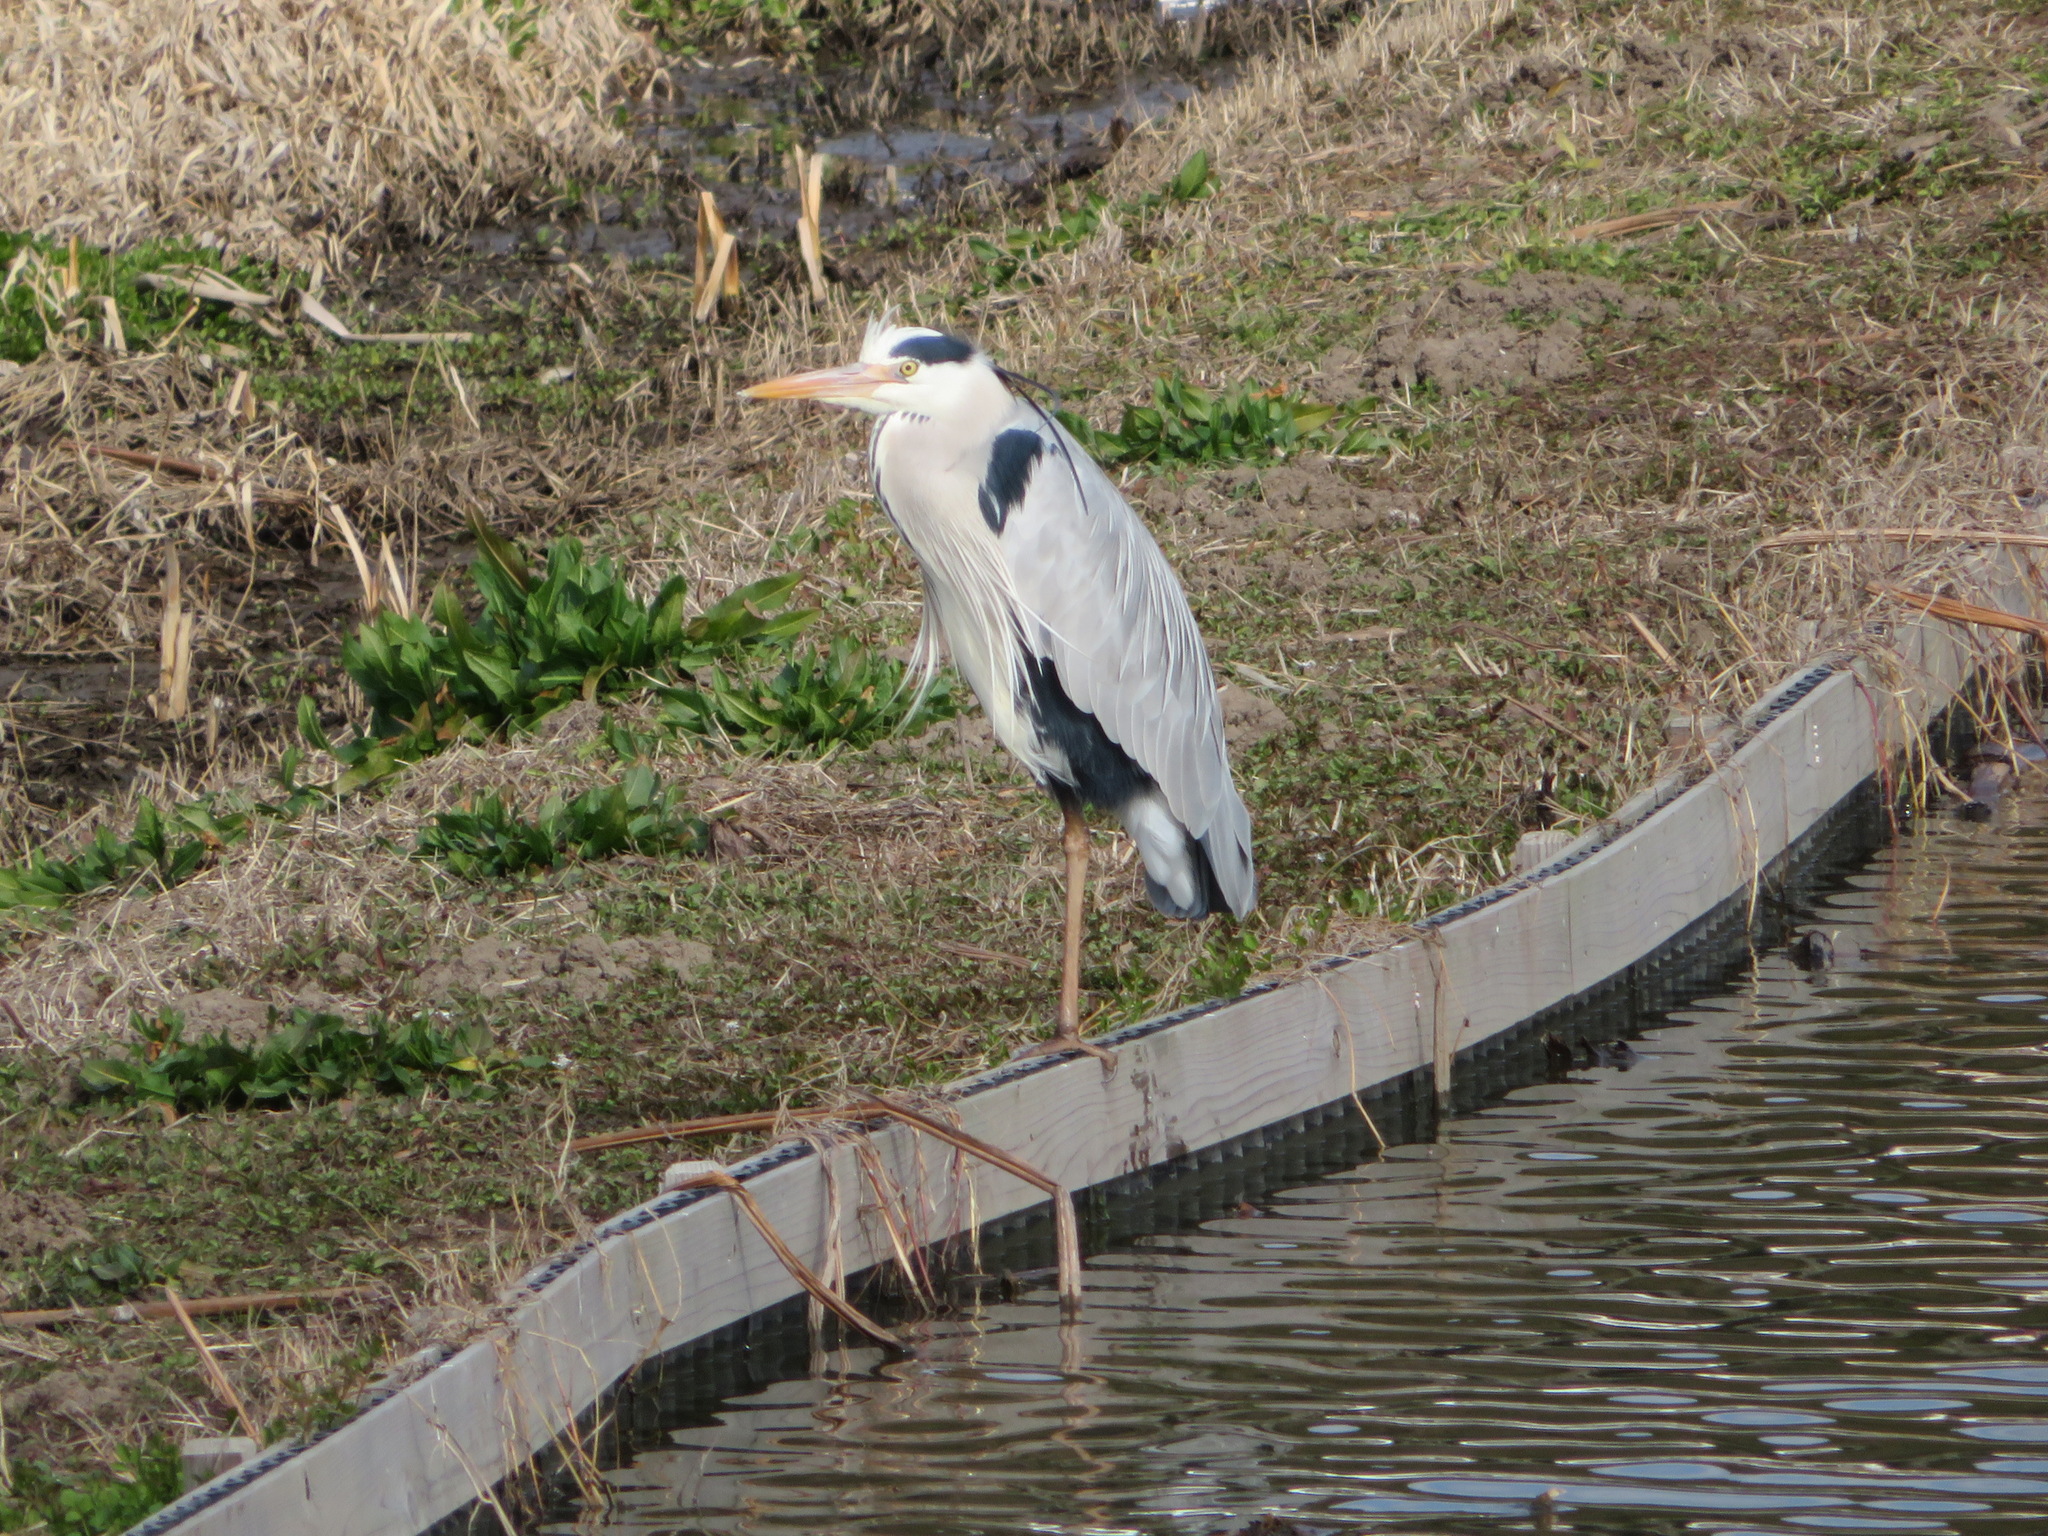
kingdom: Animalia
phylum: Chordata
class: Aves
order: Pelecaniformes
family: Ardeidae
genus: Ardea
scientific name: Ardea cinerea
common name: Grey heron
